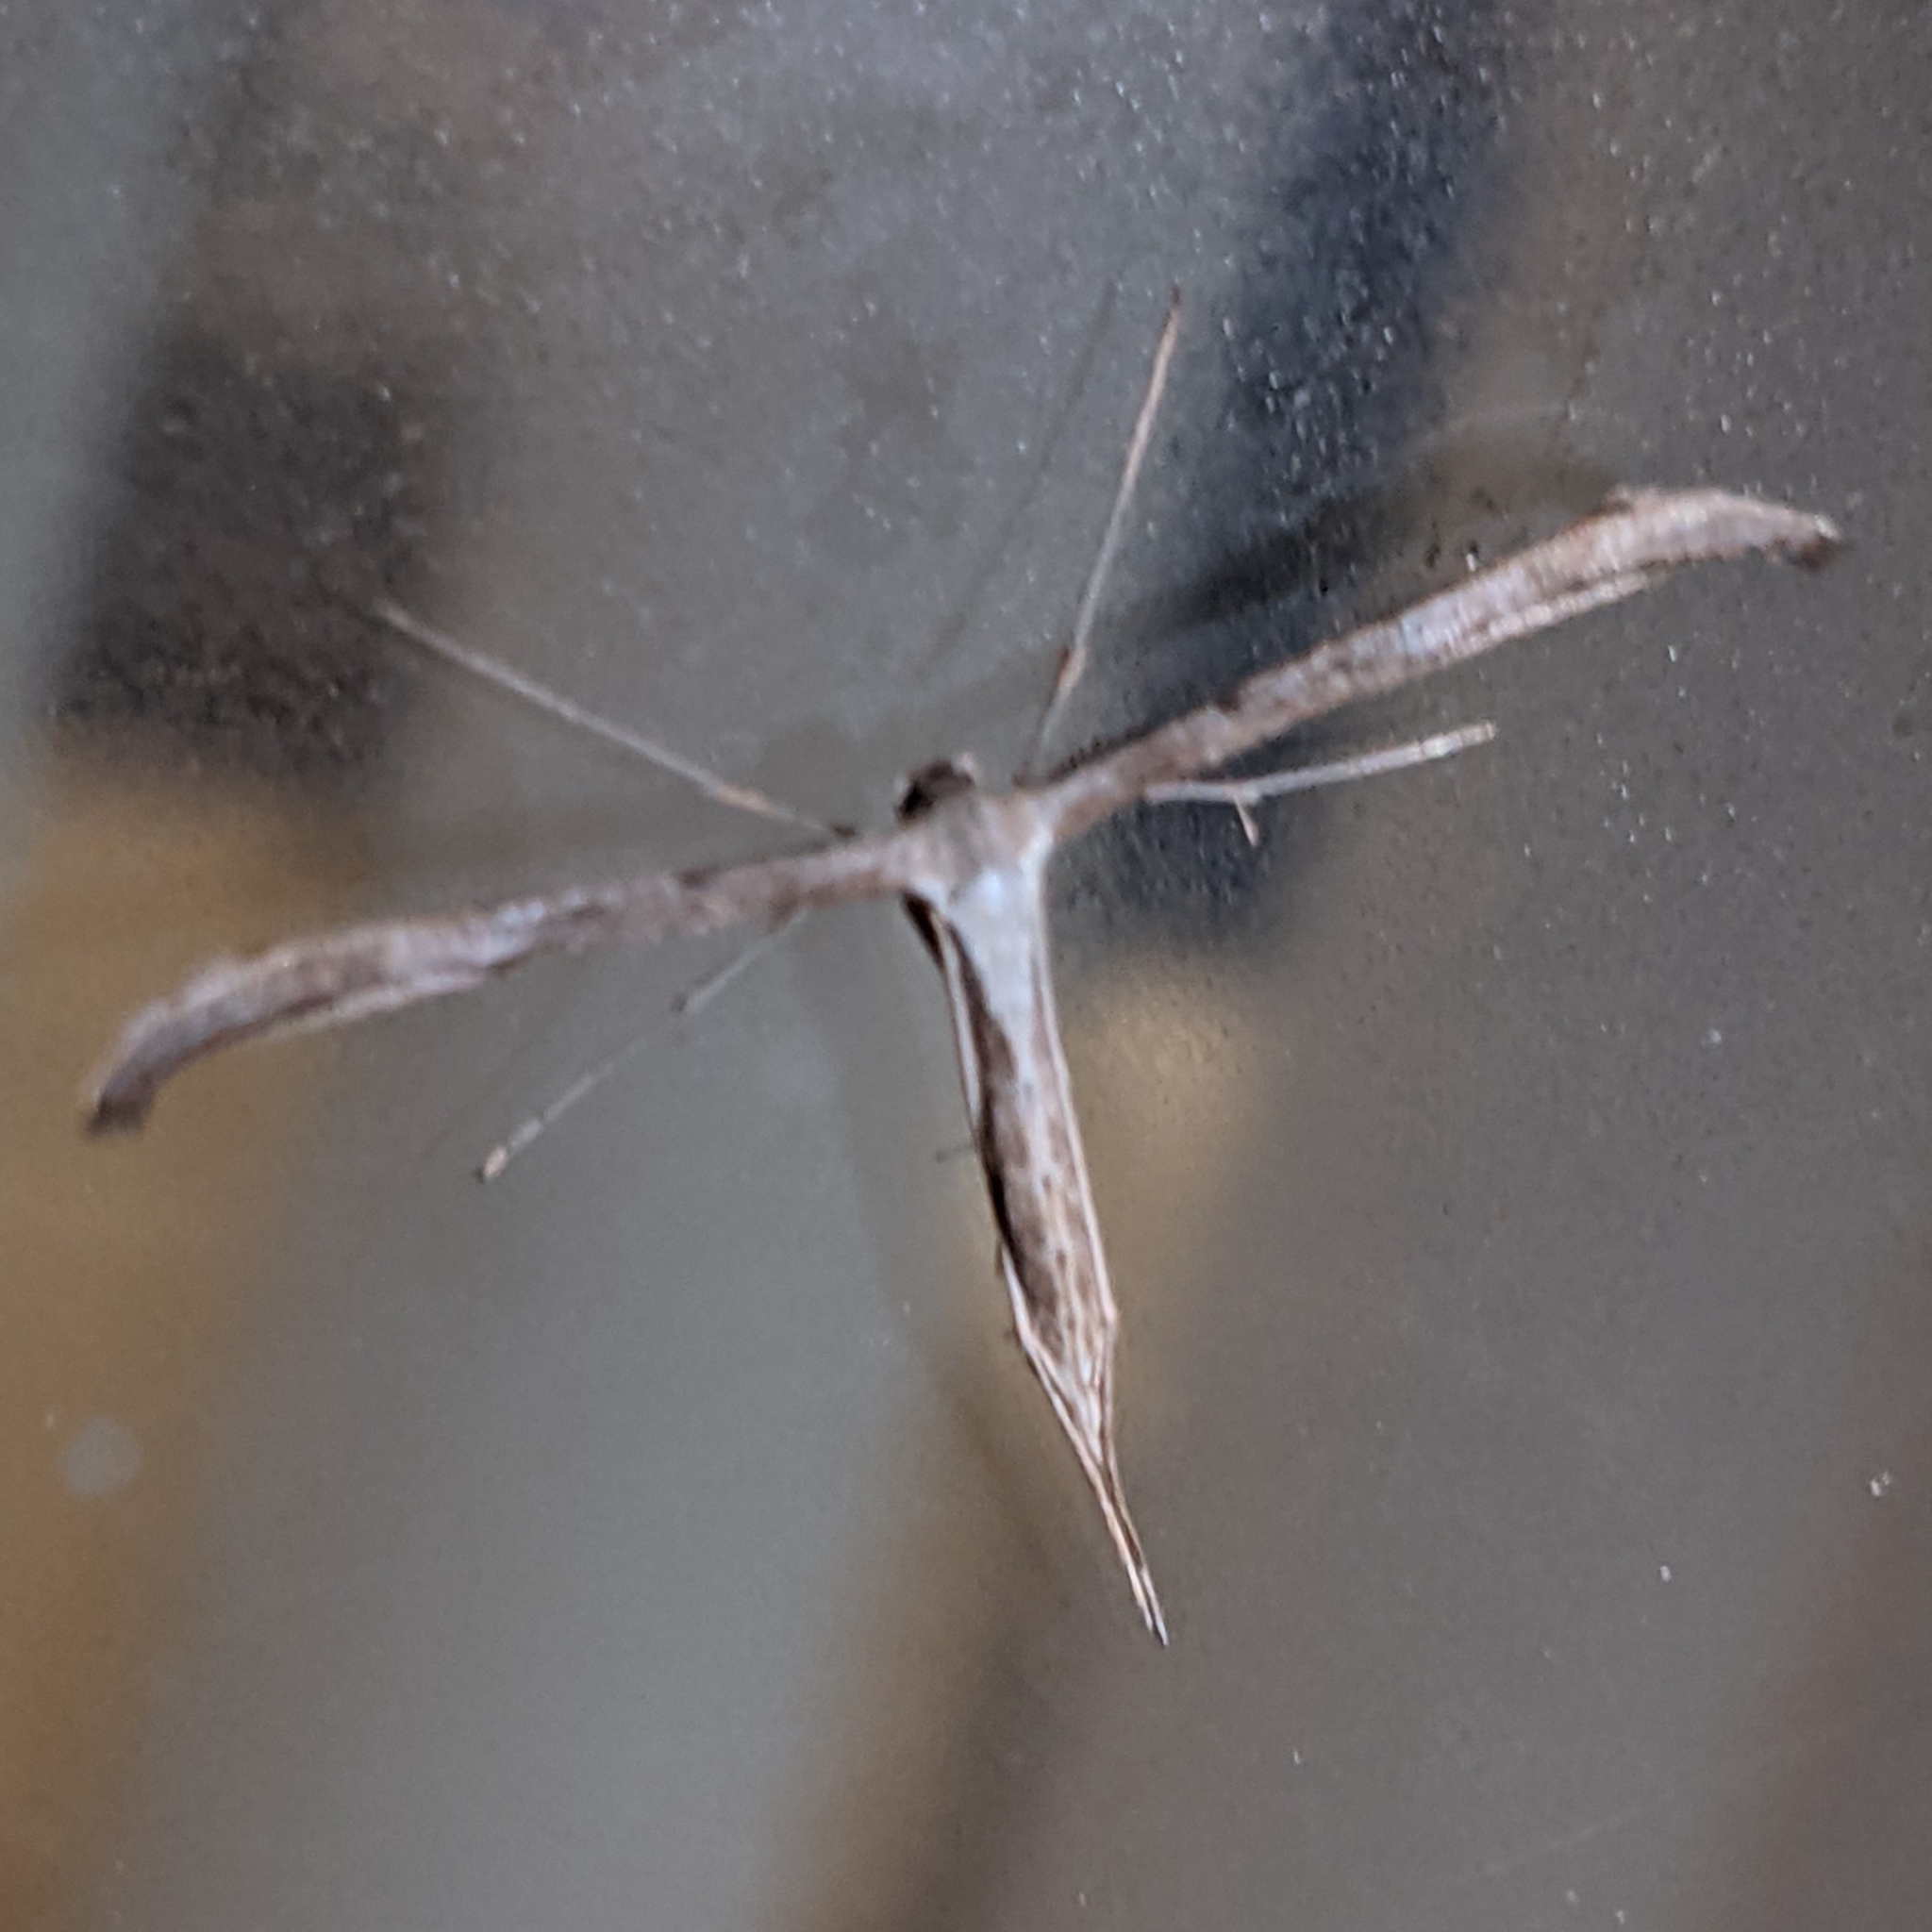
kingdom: Animalia
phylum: Arthropoda
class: Insecta
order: Lepidoptera
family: Pterophoridae
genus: Emmelina
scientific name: Emmelina monodactyla
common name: Common plume
